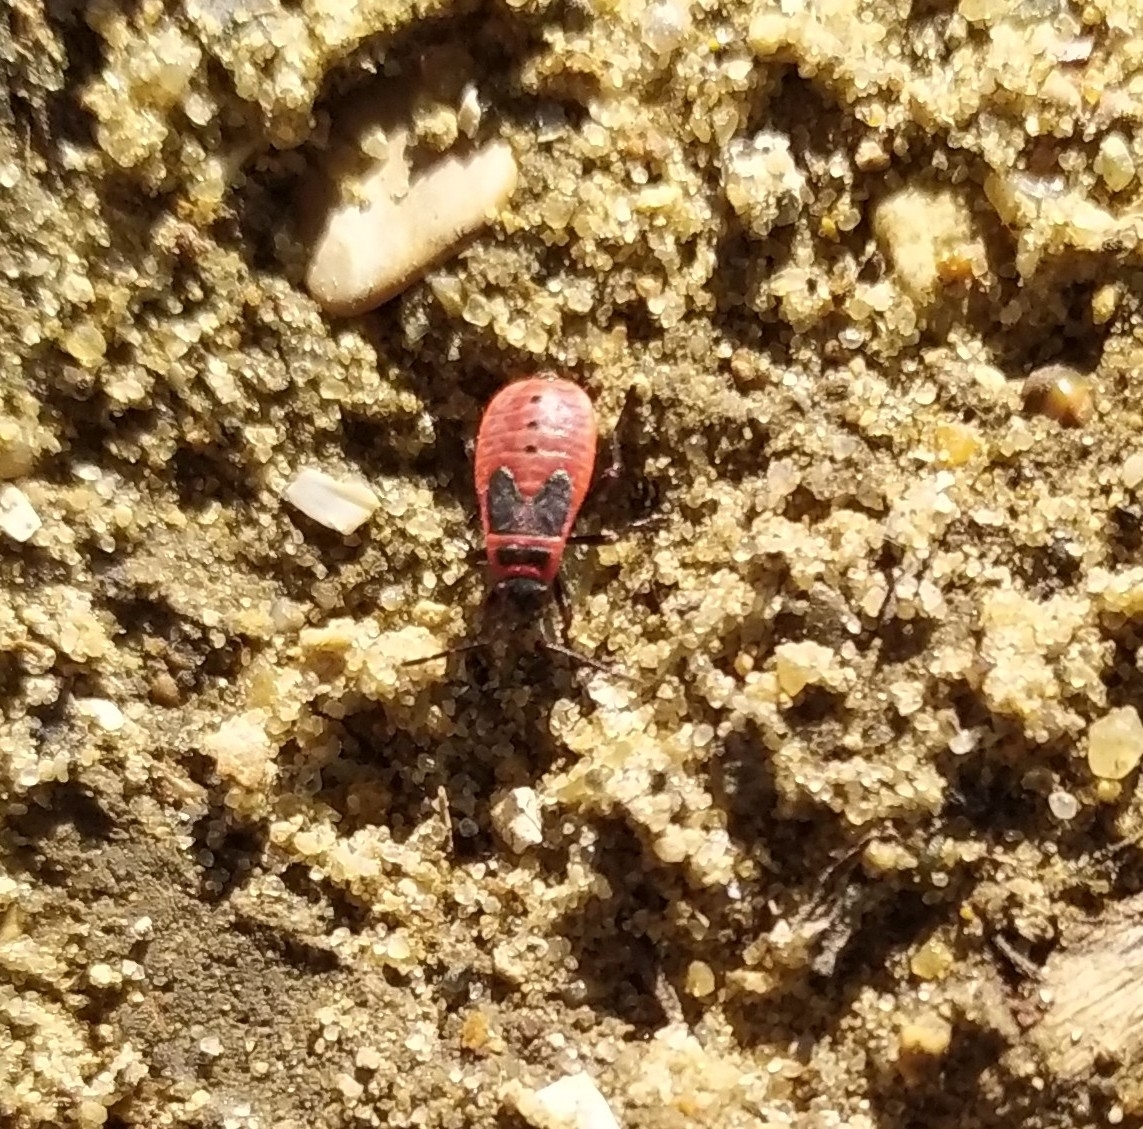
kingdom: Animalia
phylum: Arthropoda
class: Insecta
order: Hemiptera
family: Pyrrhocoridae
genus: Pyrrhocoris
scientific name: Pyrrhocoris apterus
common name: Firebug
